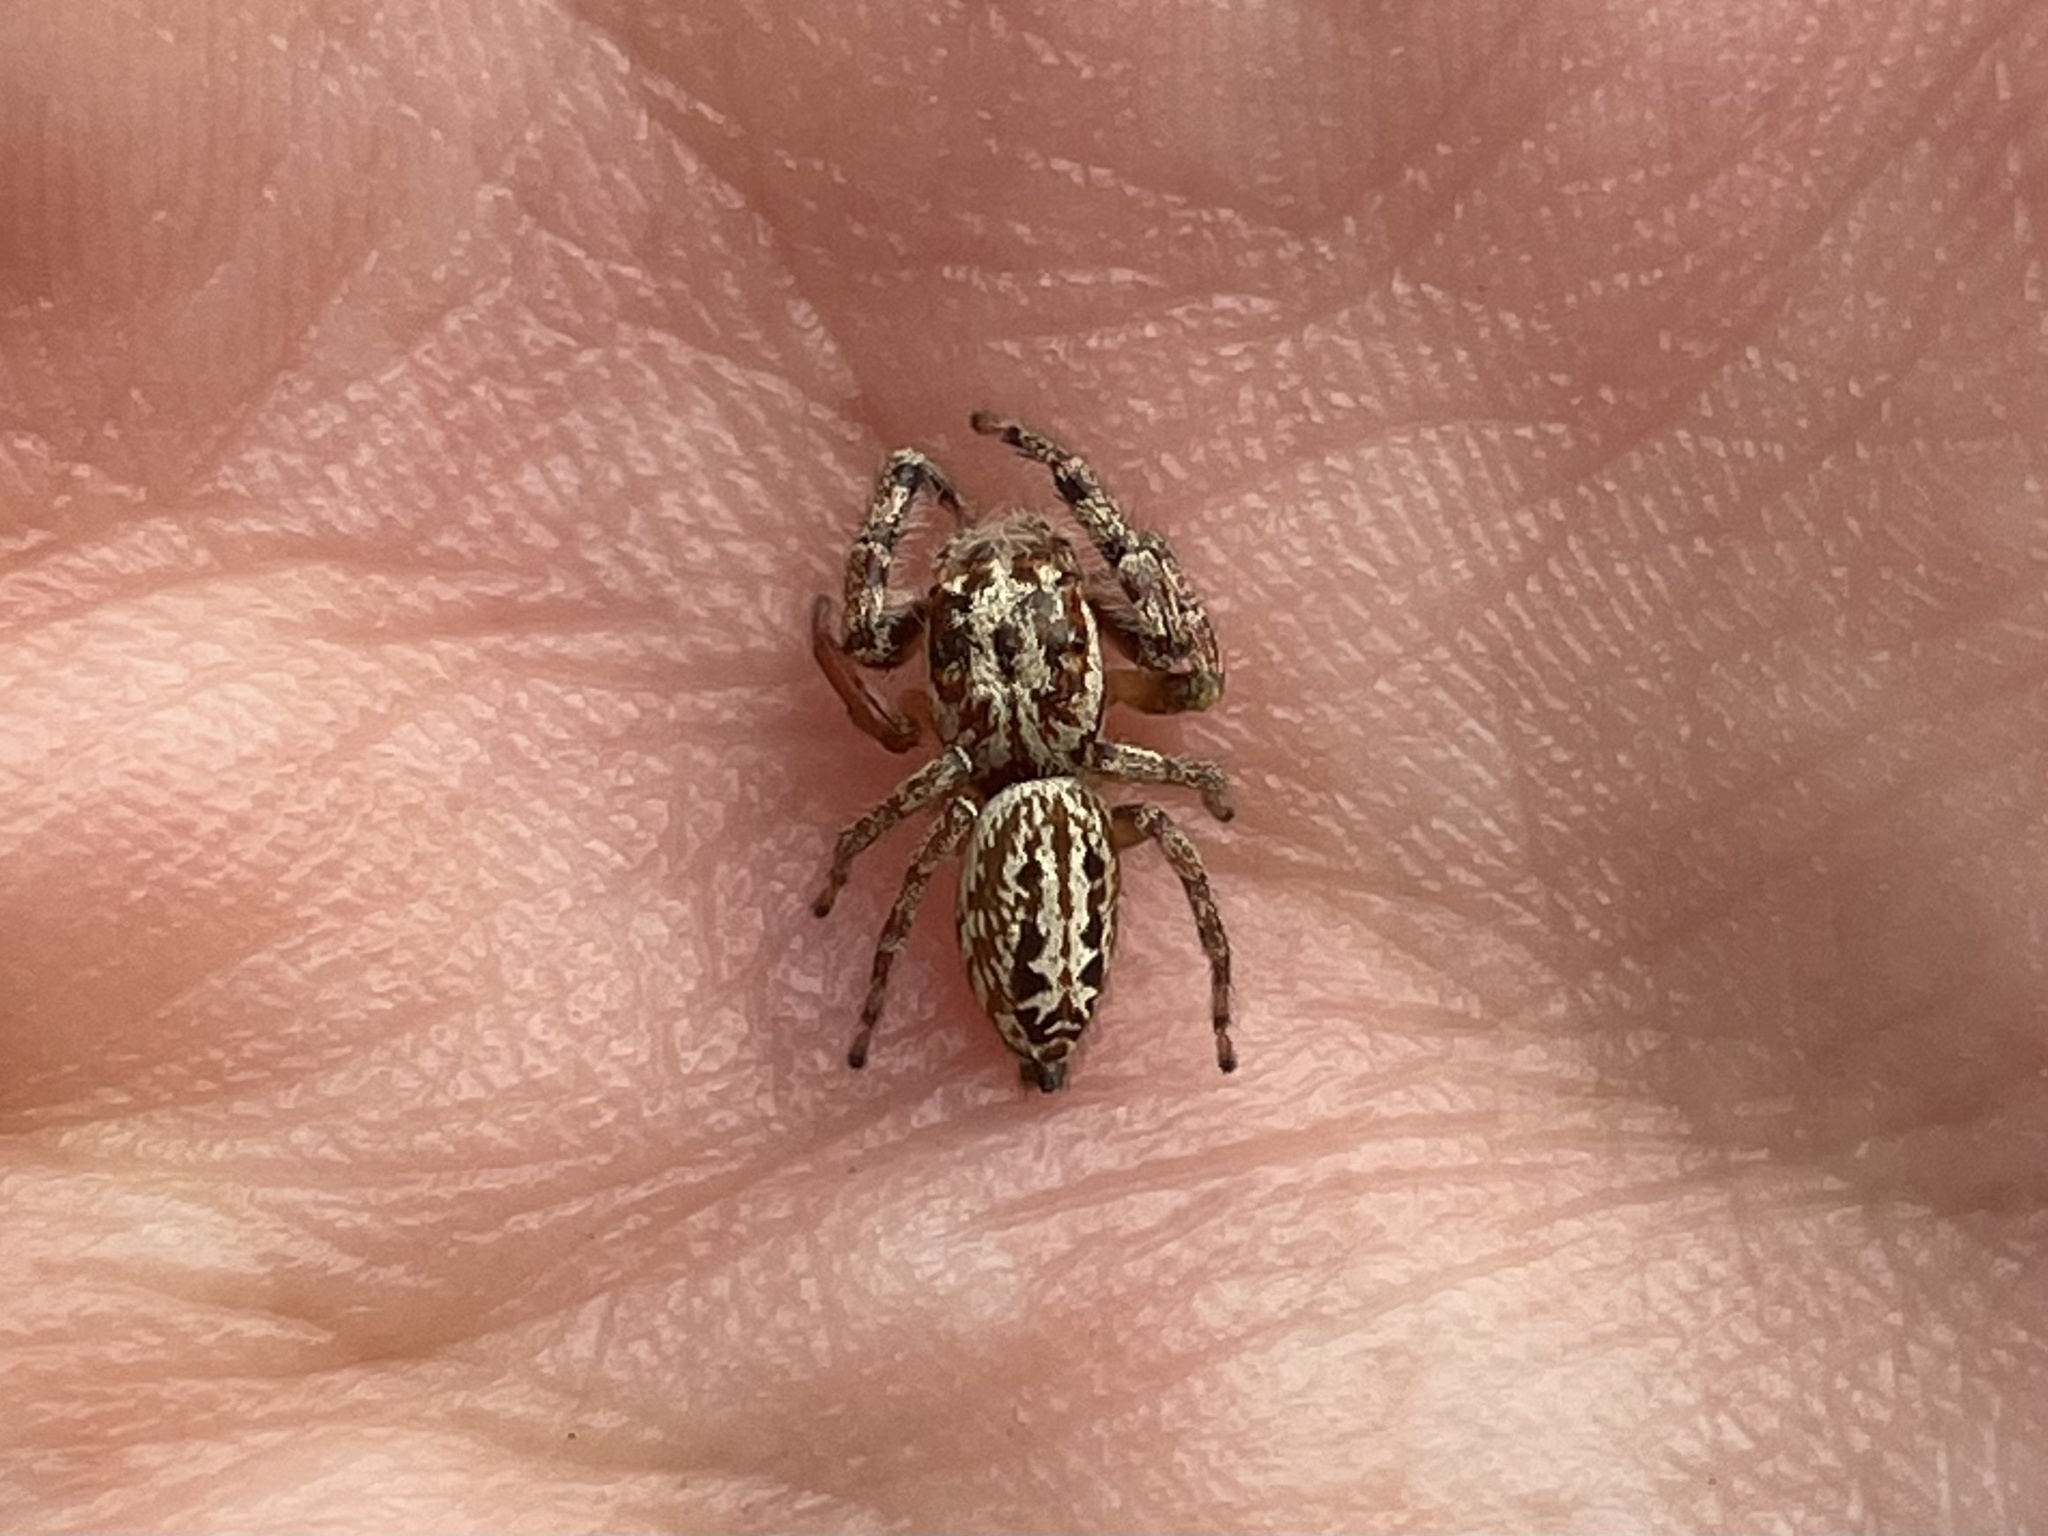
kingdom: Animalia
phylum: Arthropoda
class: Arachnida
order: Araneae
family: Salticidae
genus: Opisthoncus
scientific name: Opisthoncus serratofasciatus
